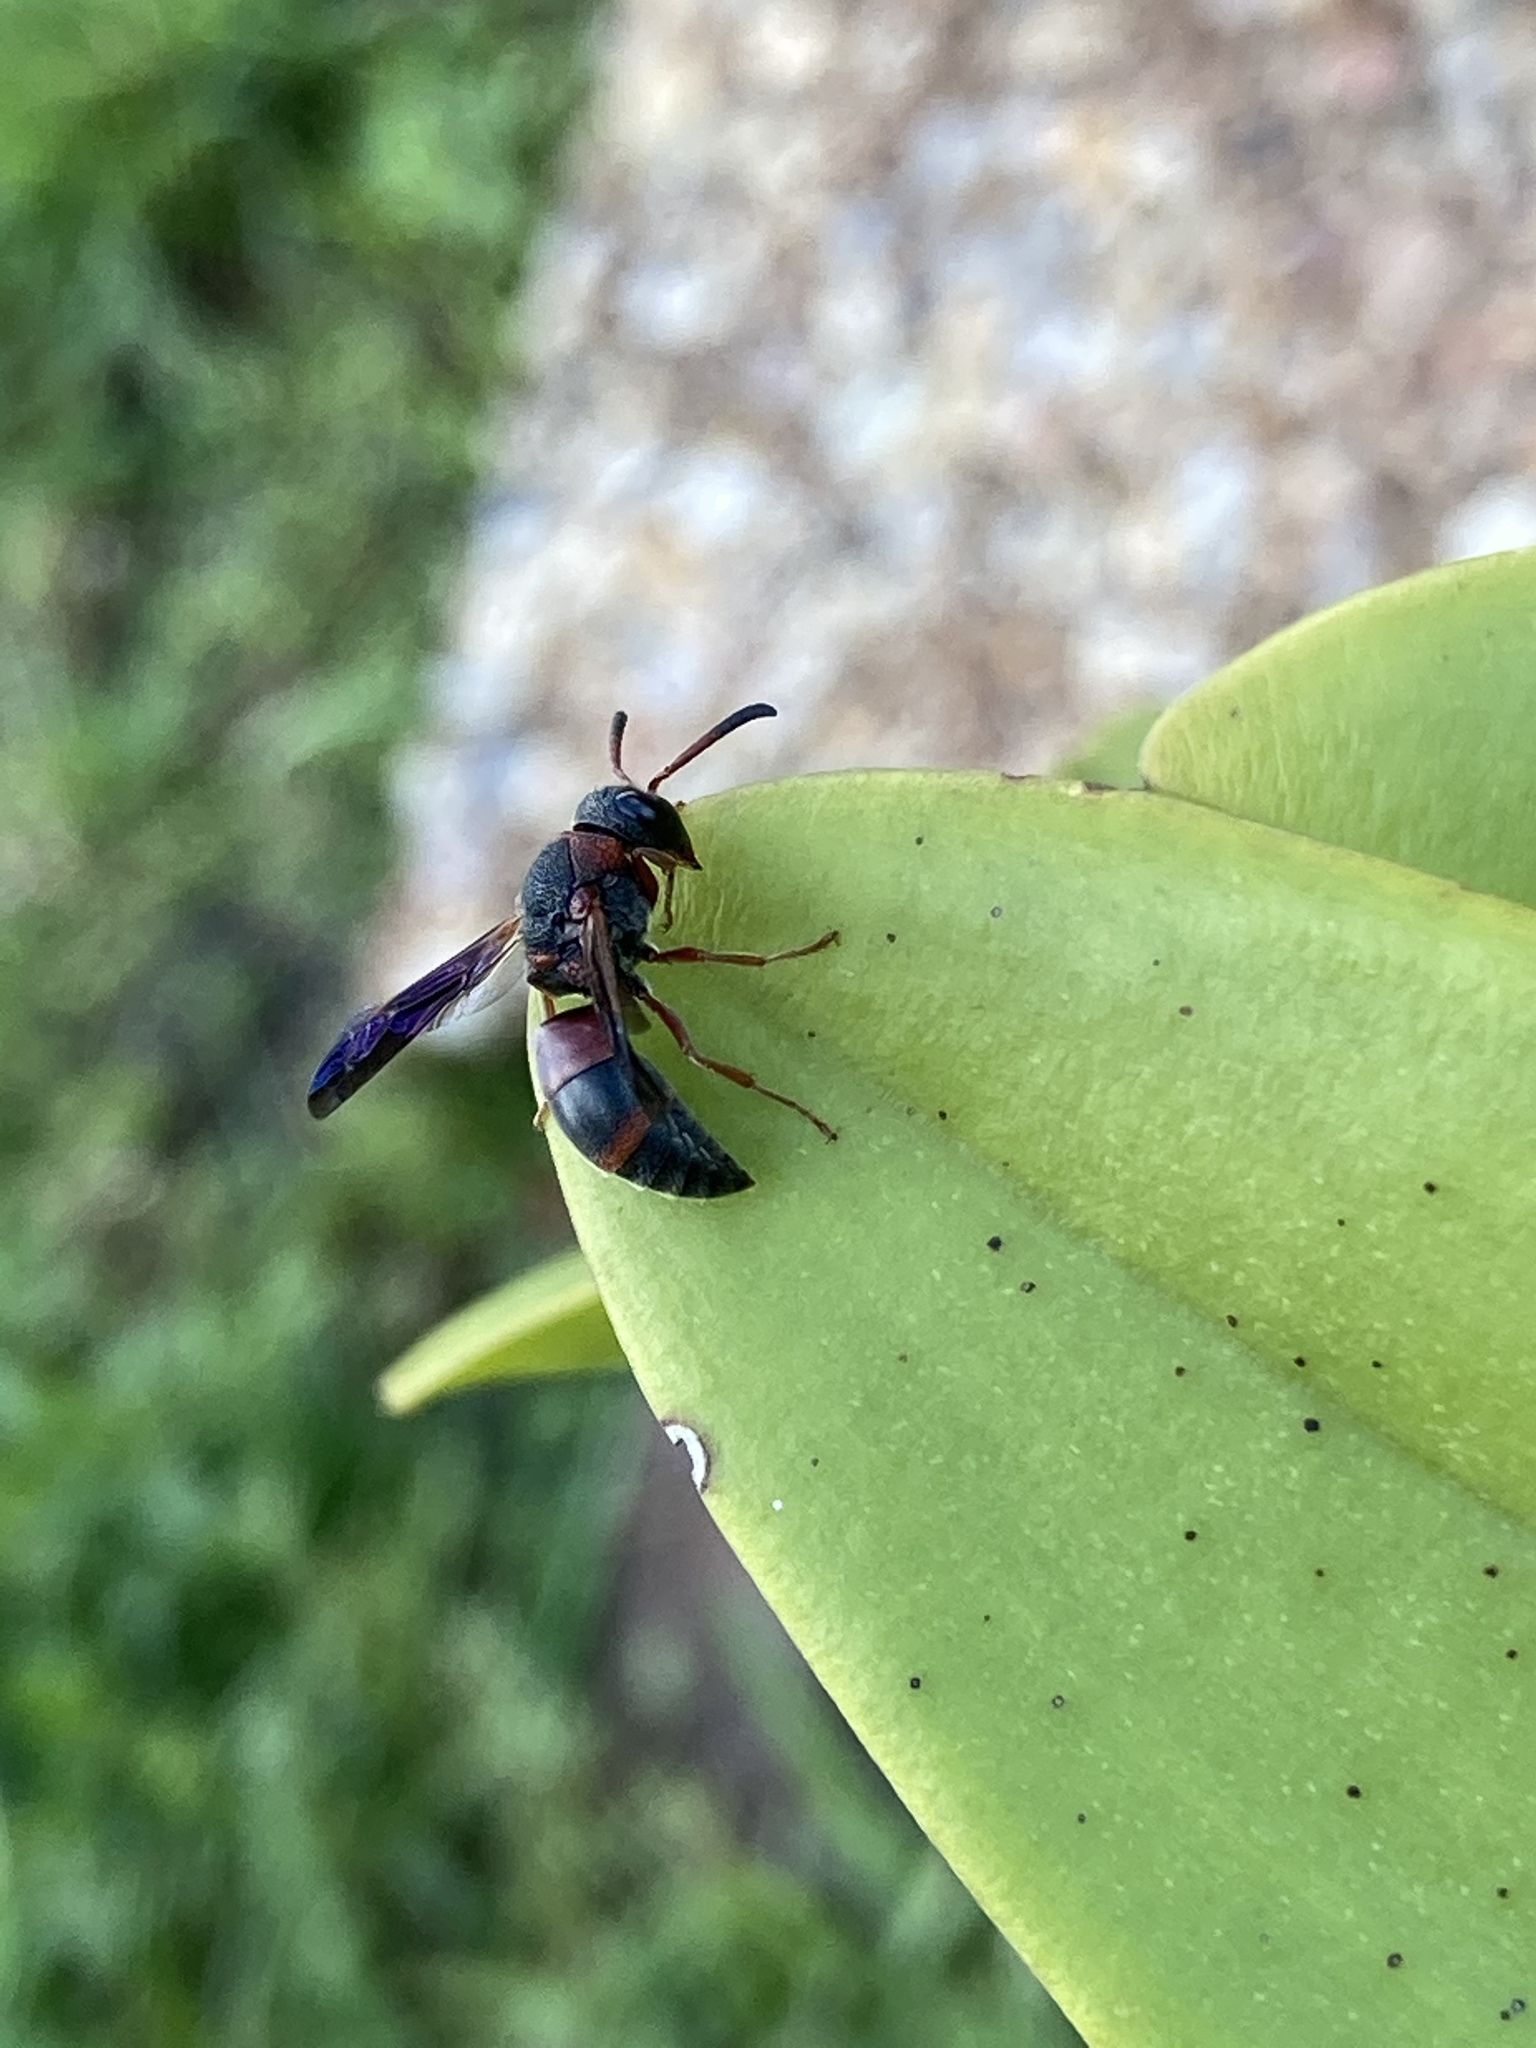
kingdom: Animalia
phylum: Arthropoda
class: Insecta
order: Hymenoptera
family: Eumenidae
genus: Pachodynerus
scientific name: Pachodynerus erynnis
